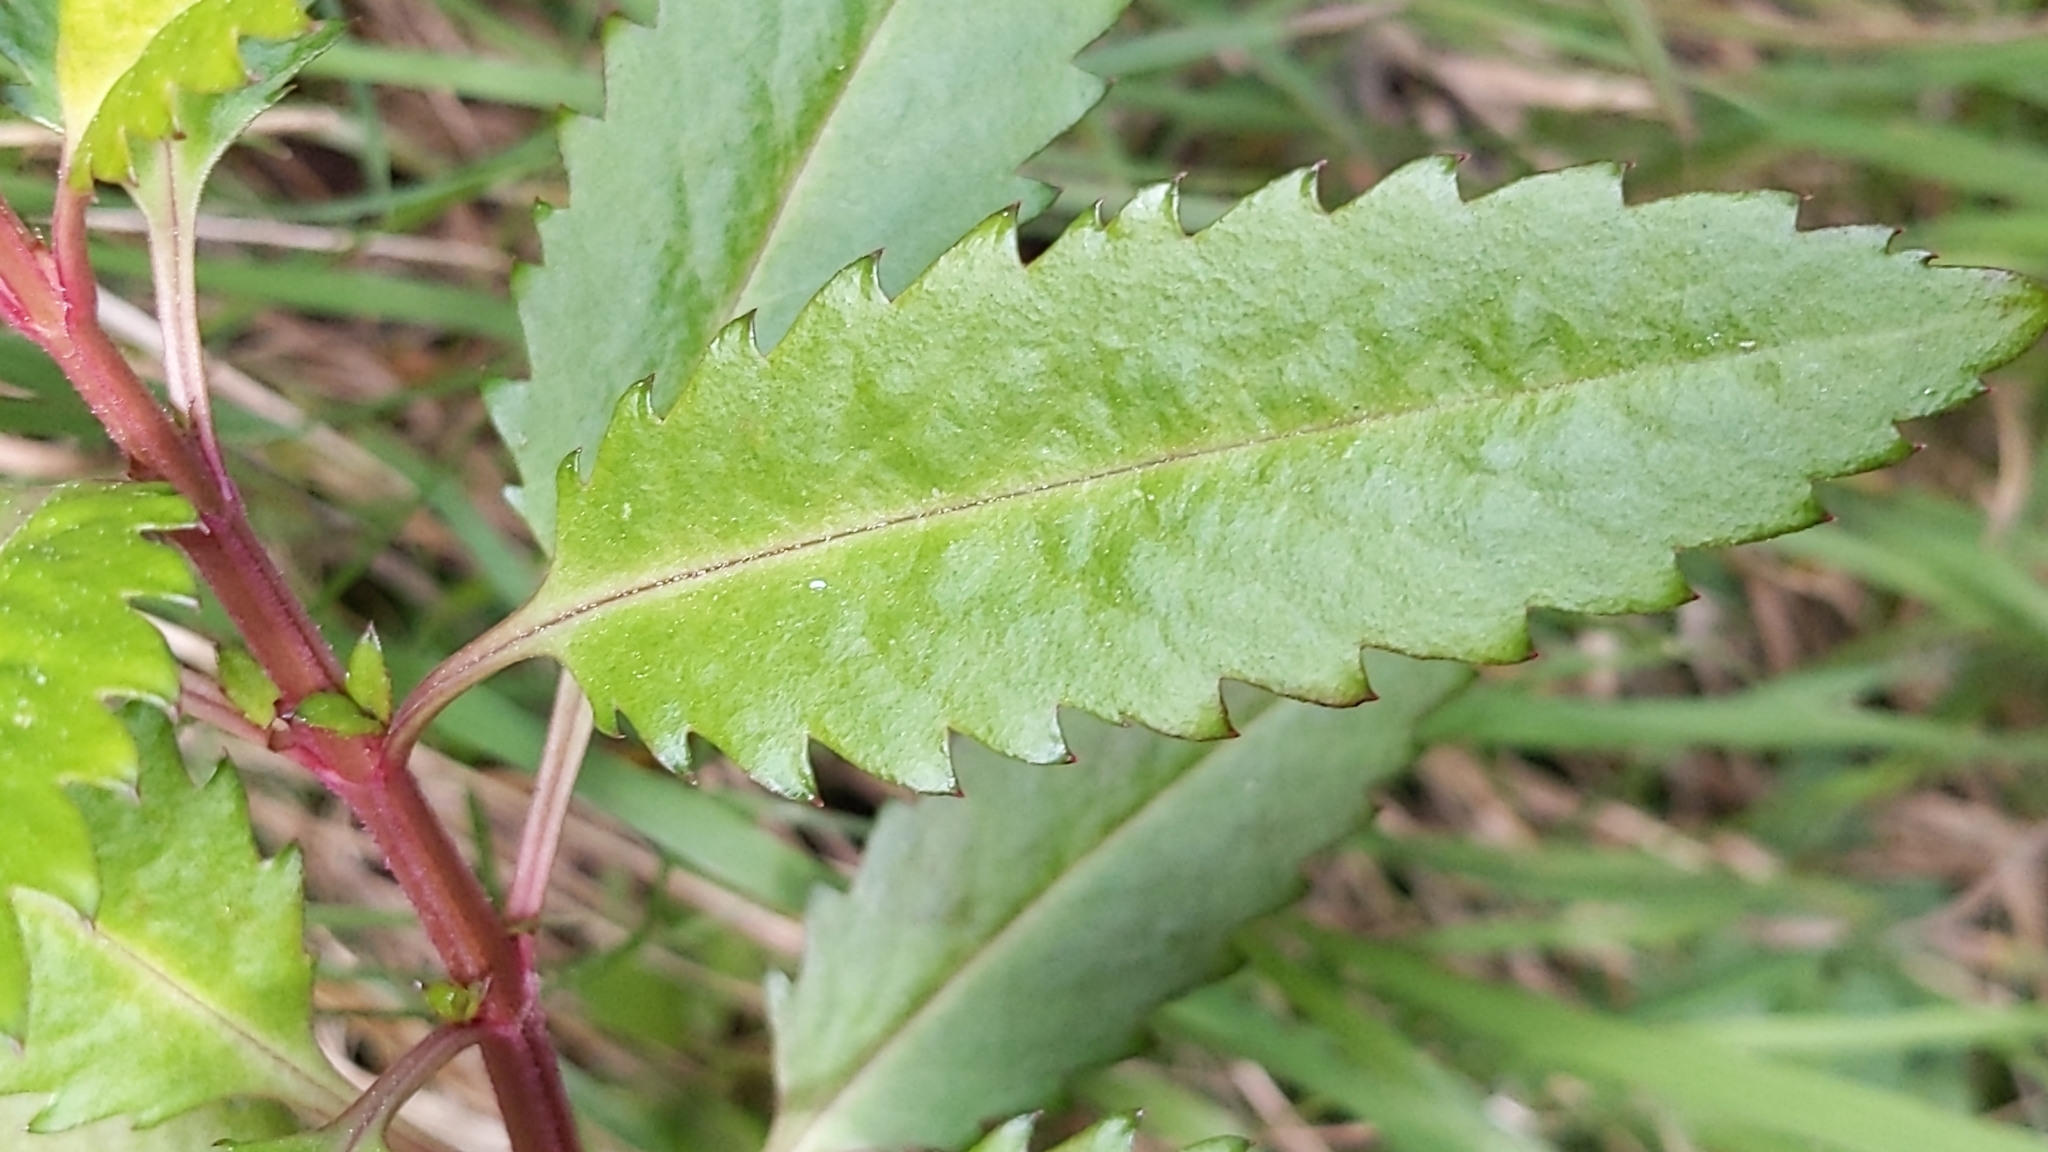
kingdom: Plantae
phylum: Tracheophyta
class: Magnoliopsida
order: Saxifragales
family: Haloragaceae
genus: Haloragis
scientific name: Haloragis erecta
